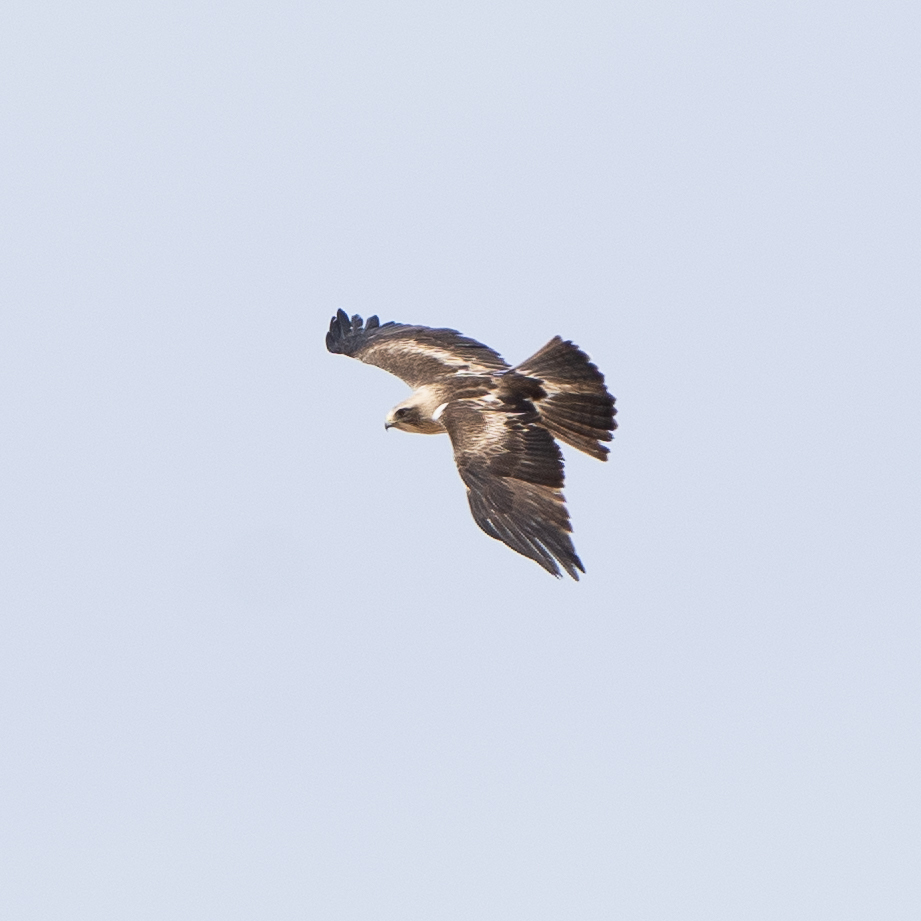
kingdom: Animalia
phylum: Chordata
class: Aves
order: Accipitriformes
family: Accipitridae
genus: Hieraaetus
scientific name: Hieraaetus pennatus
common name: Booted eagle
